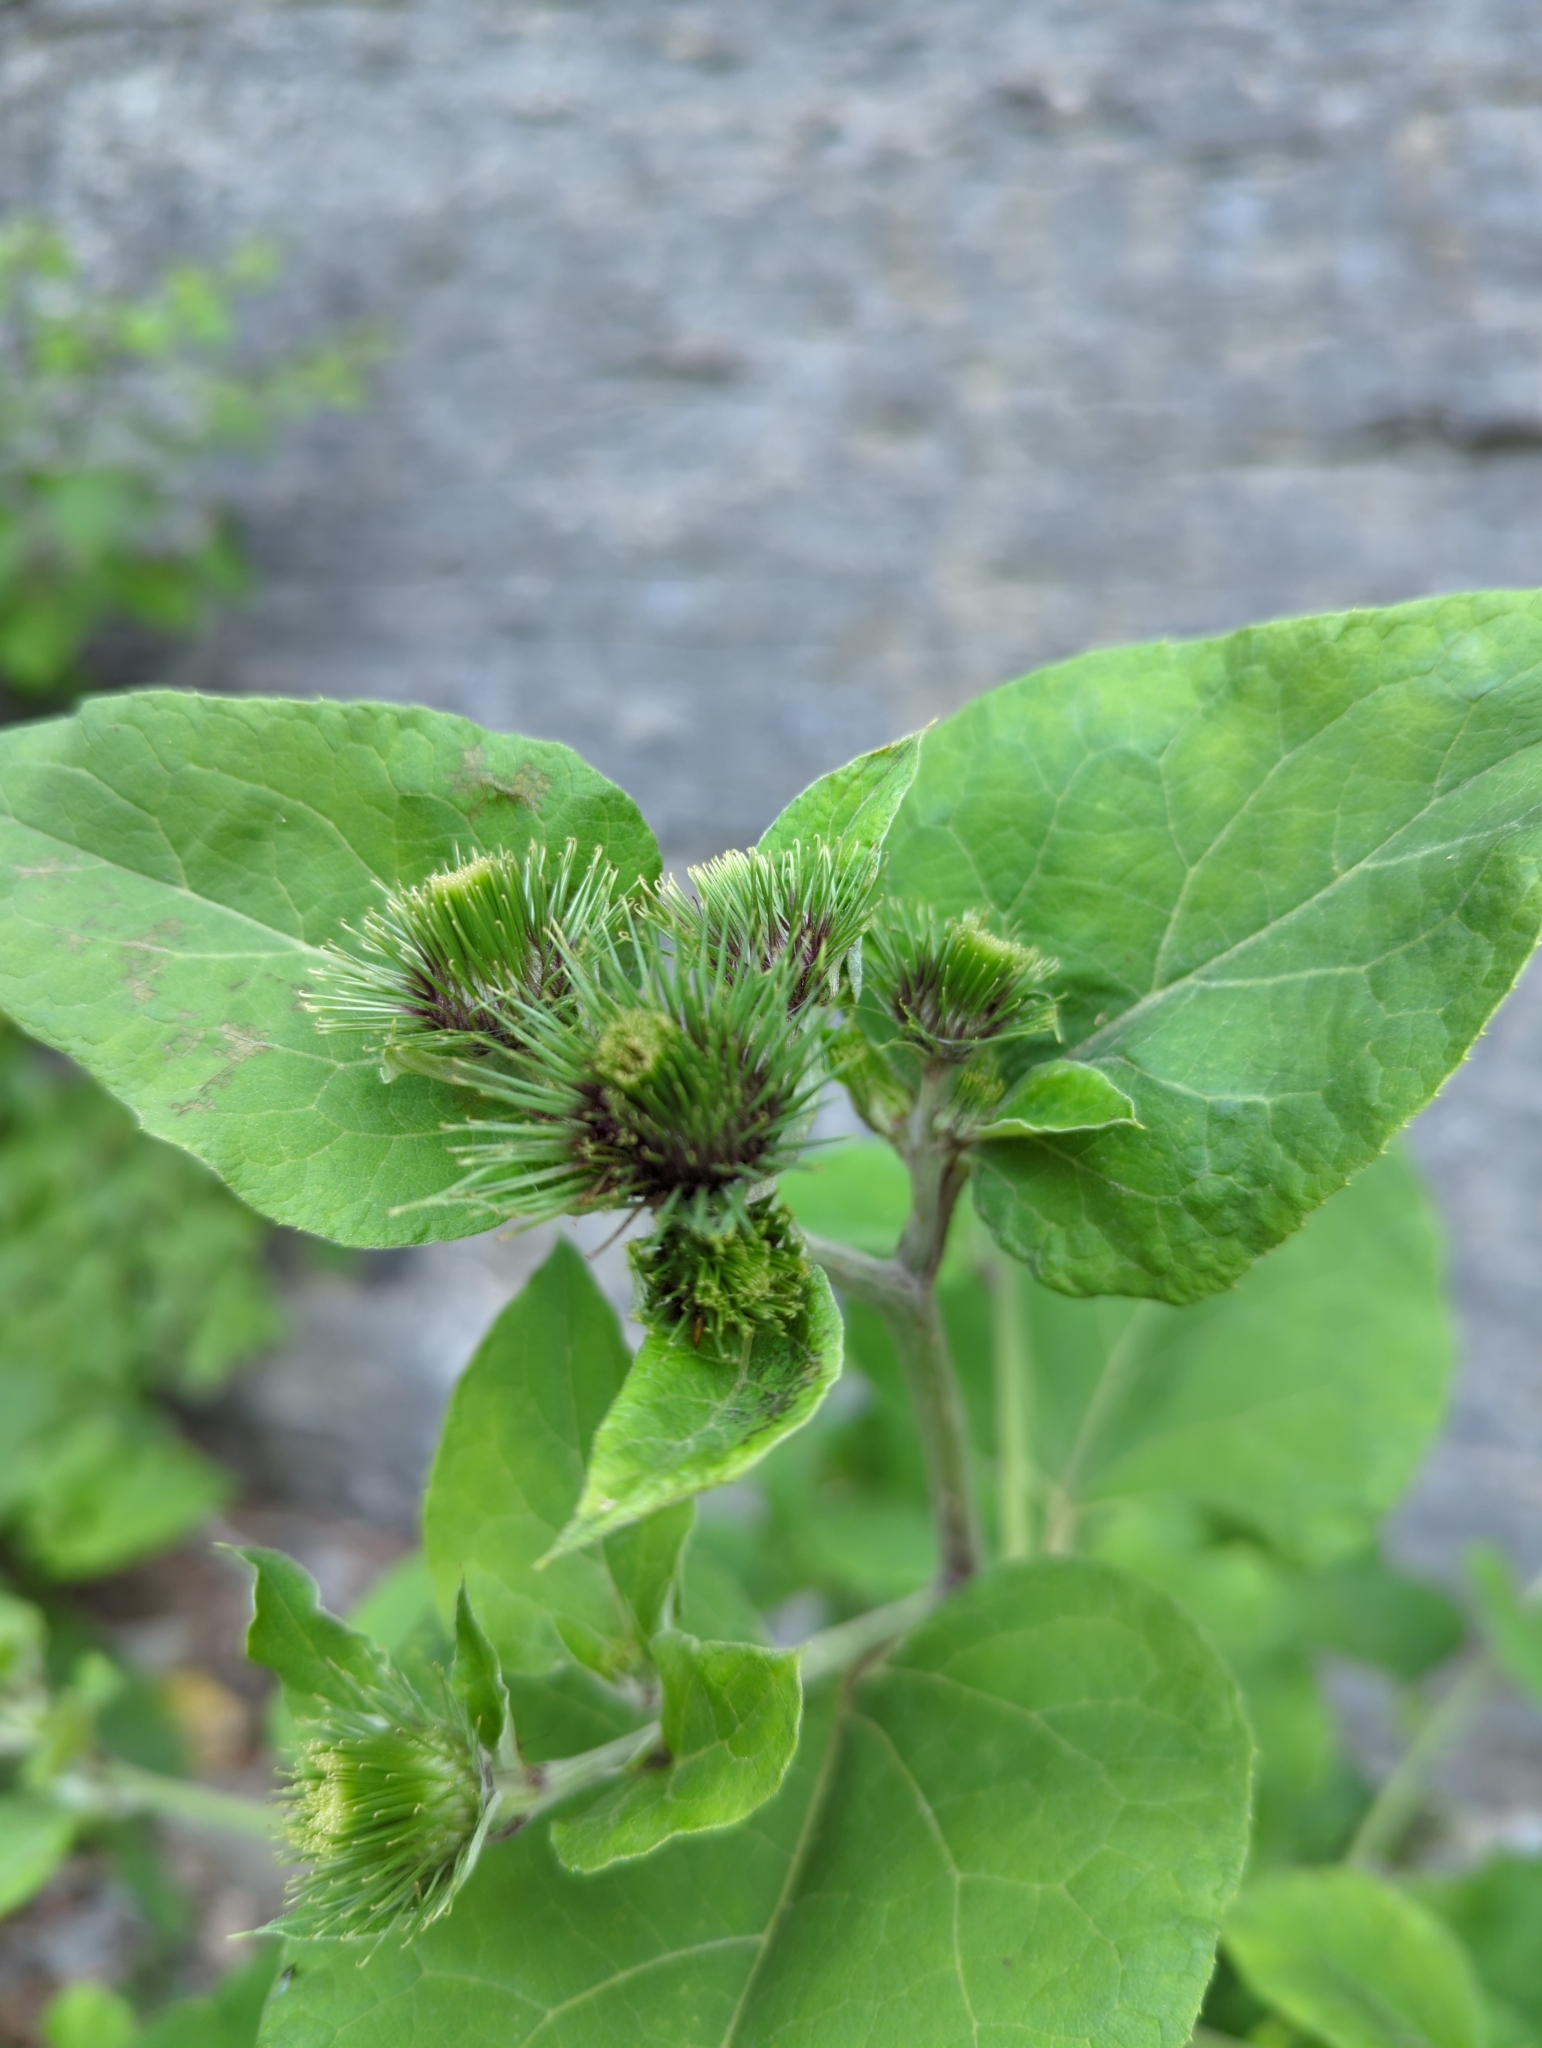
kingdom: Plantae
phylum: Tracheophyta
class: Magnoliopsida
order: Asterales
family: Asteraceae
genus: Arctium
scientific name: Arctium minus
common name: Lesser burdock
